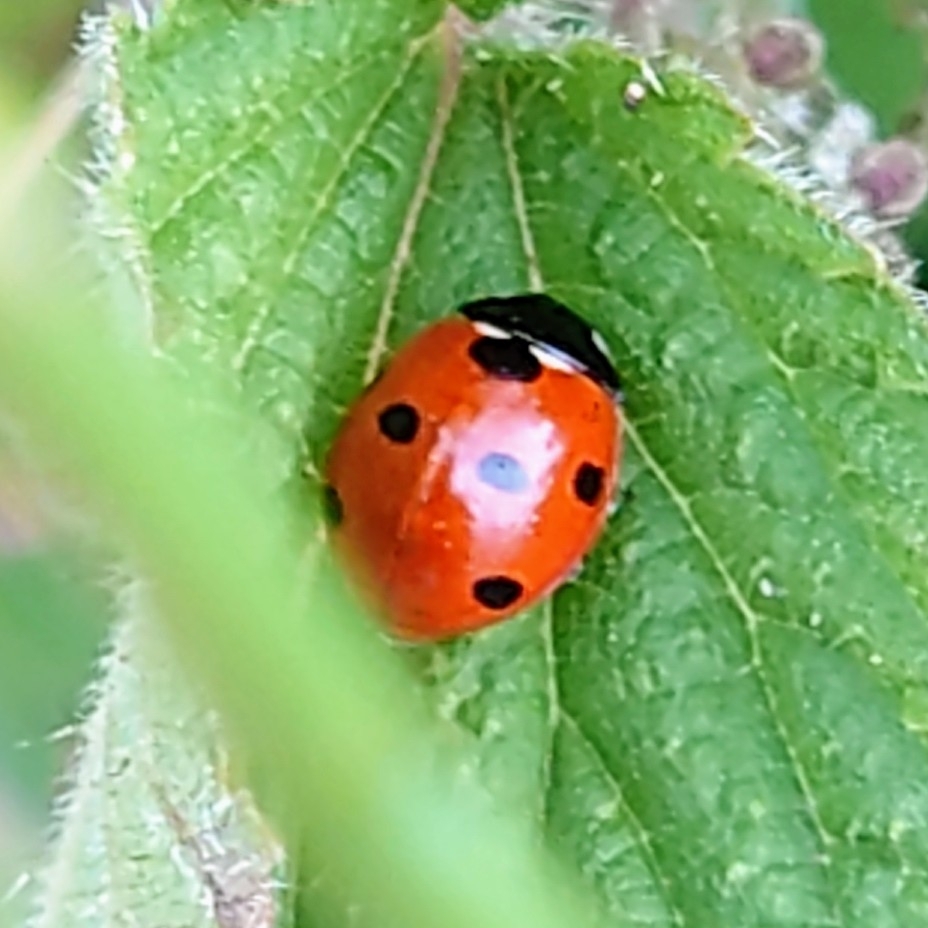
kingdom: Animalia
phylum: Arthropoda
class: Insecta
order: Coleoptera
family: Coccinellidae
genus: Coccinella
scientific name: Coccinella septempunctata
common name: Sevenspotted lady beetle
